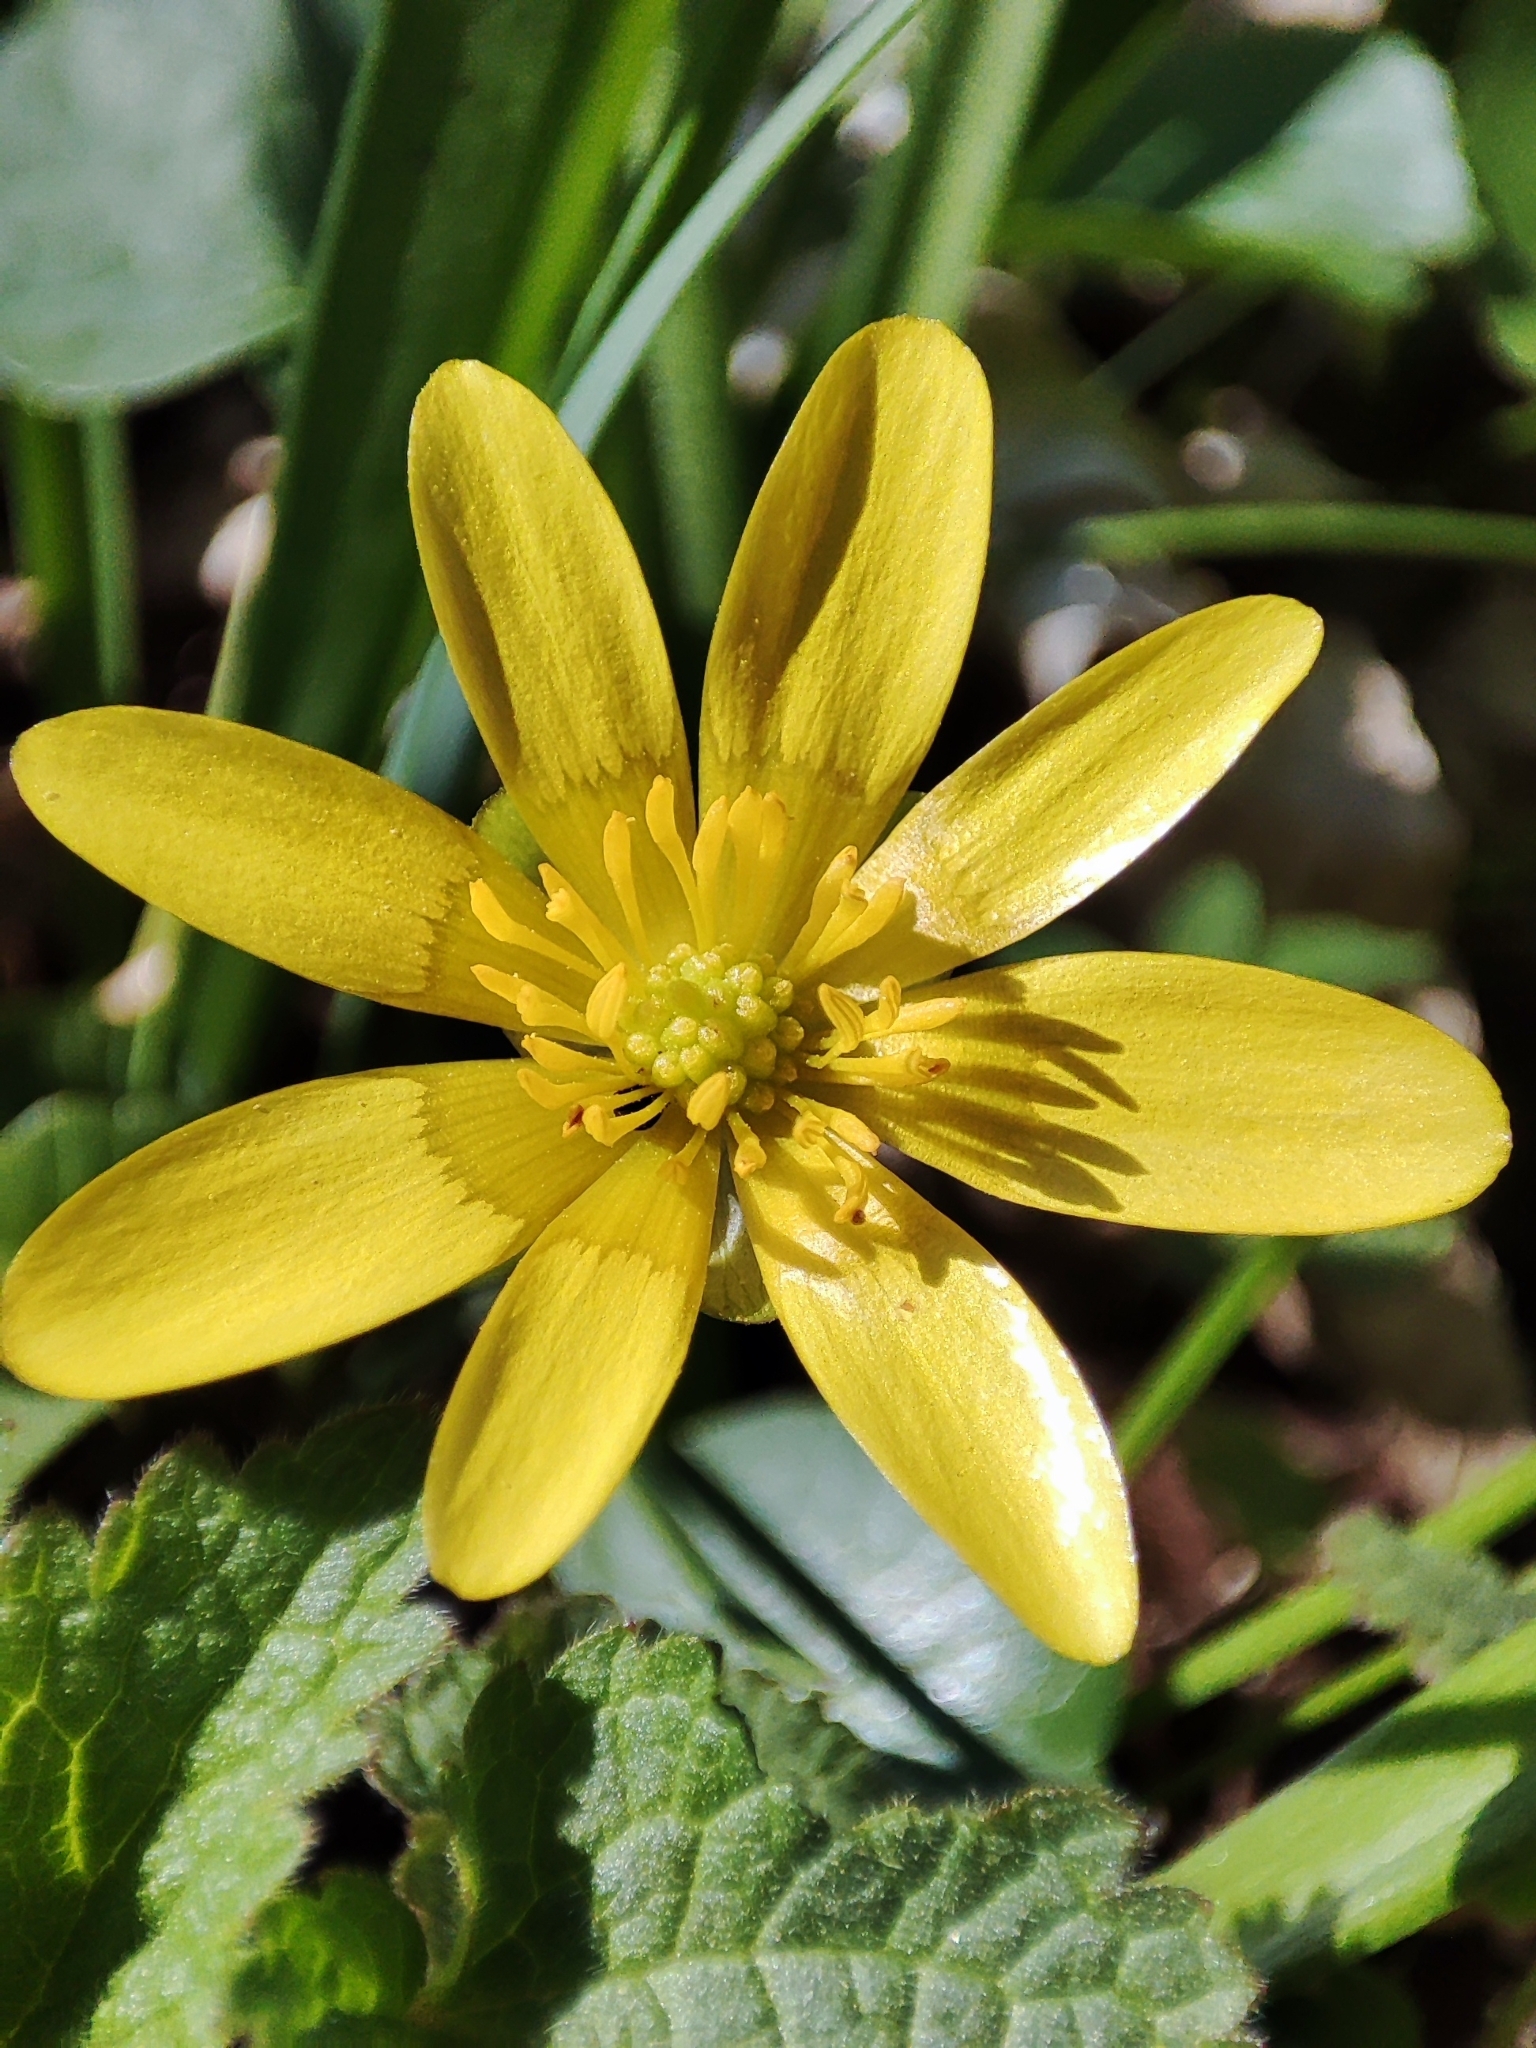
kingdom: Plantae
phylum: Tracheophyta
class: Magnoliopsida
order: Ranunculales
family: Ranunculaceae
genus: Ficaria
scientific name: Ficaria verna
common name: Lesser celandine
